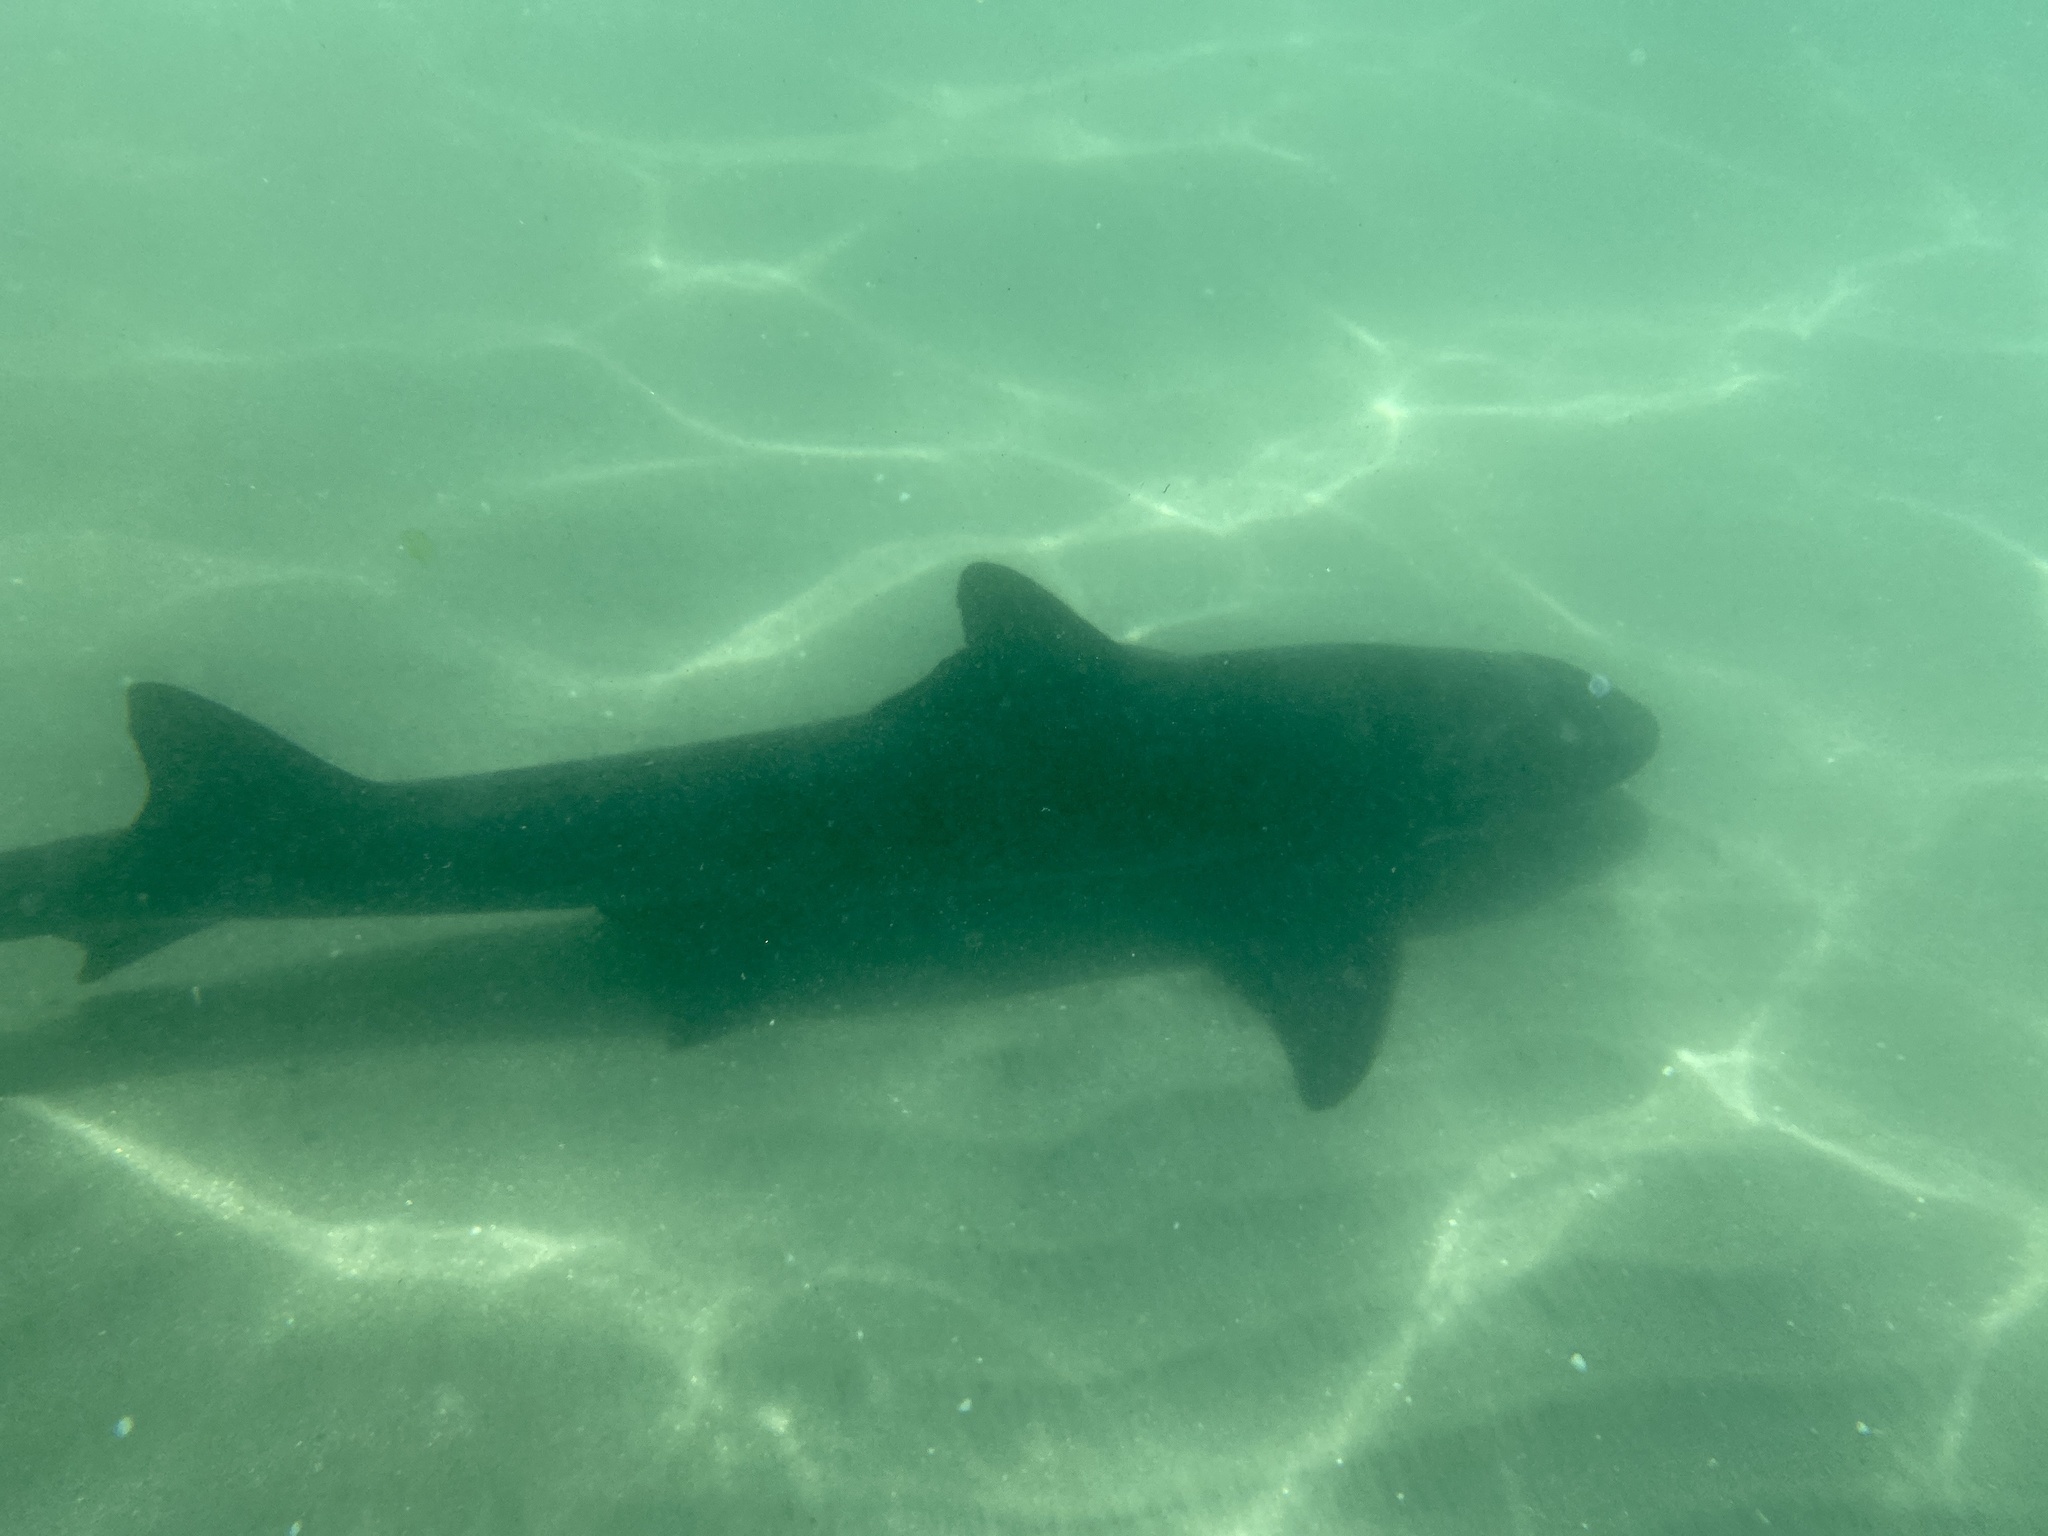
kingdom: Animalia
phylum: Chordata
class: Elasmobranchii
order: Carcharhiniformes
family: Triakidae
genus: Triakis
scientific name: Triakis semifasciata
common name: Leopard shark
